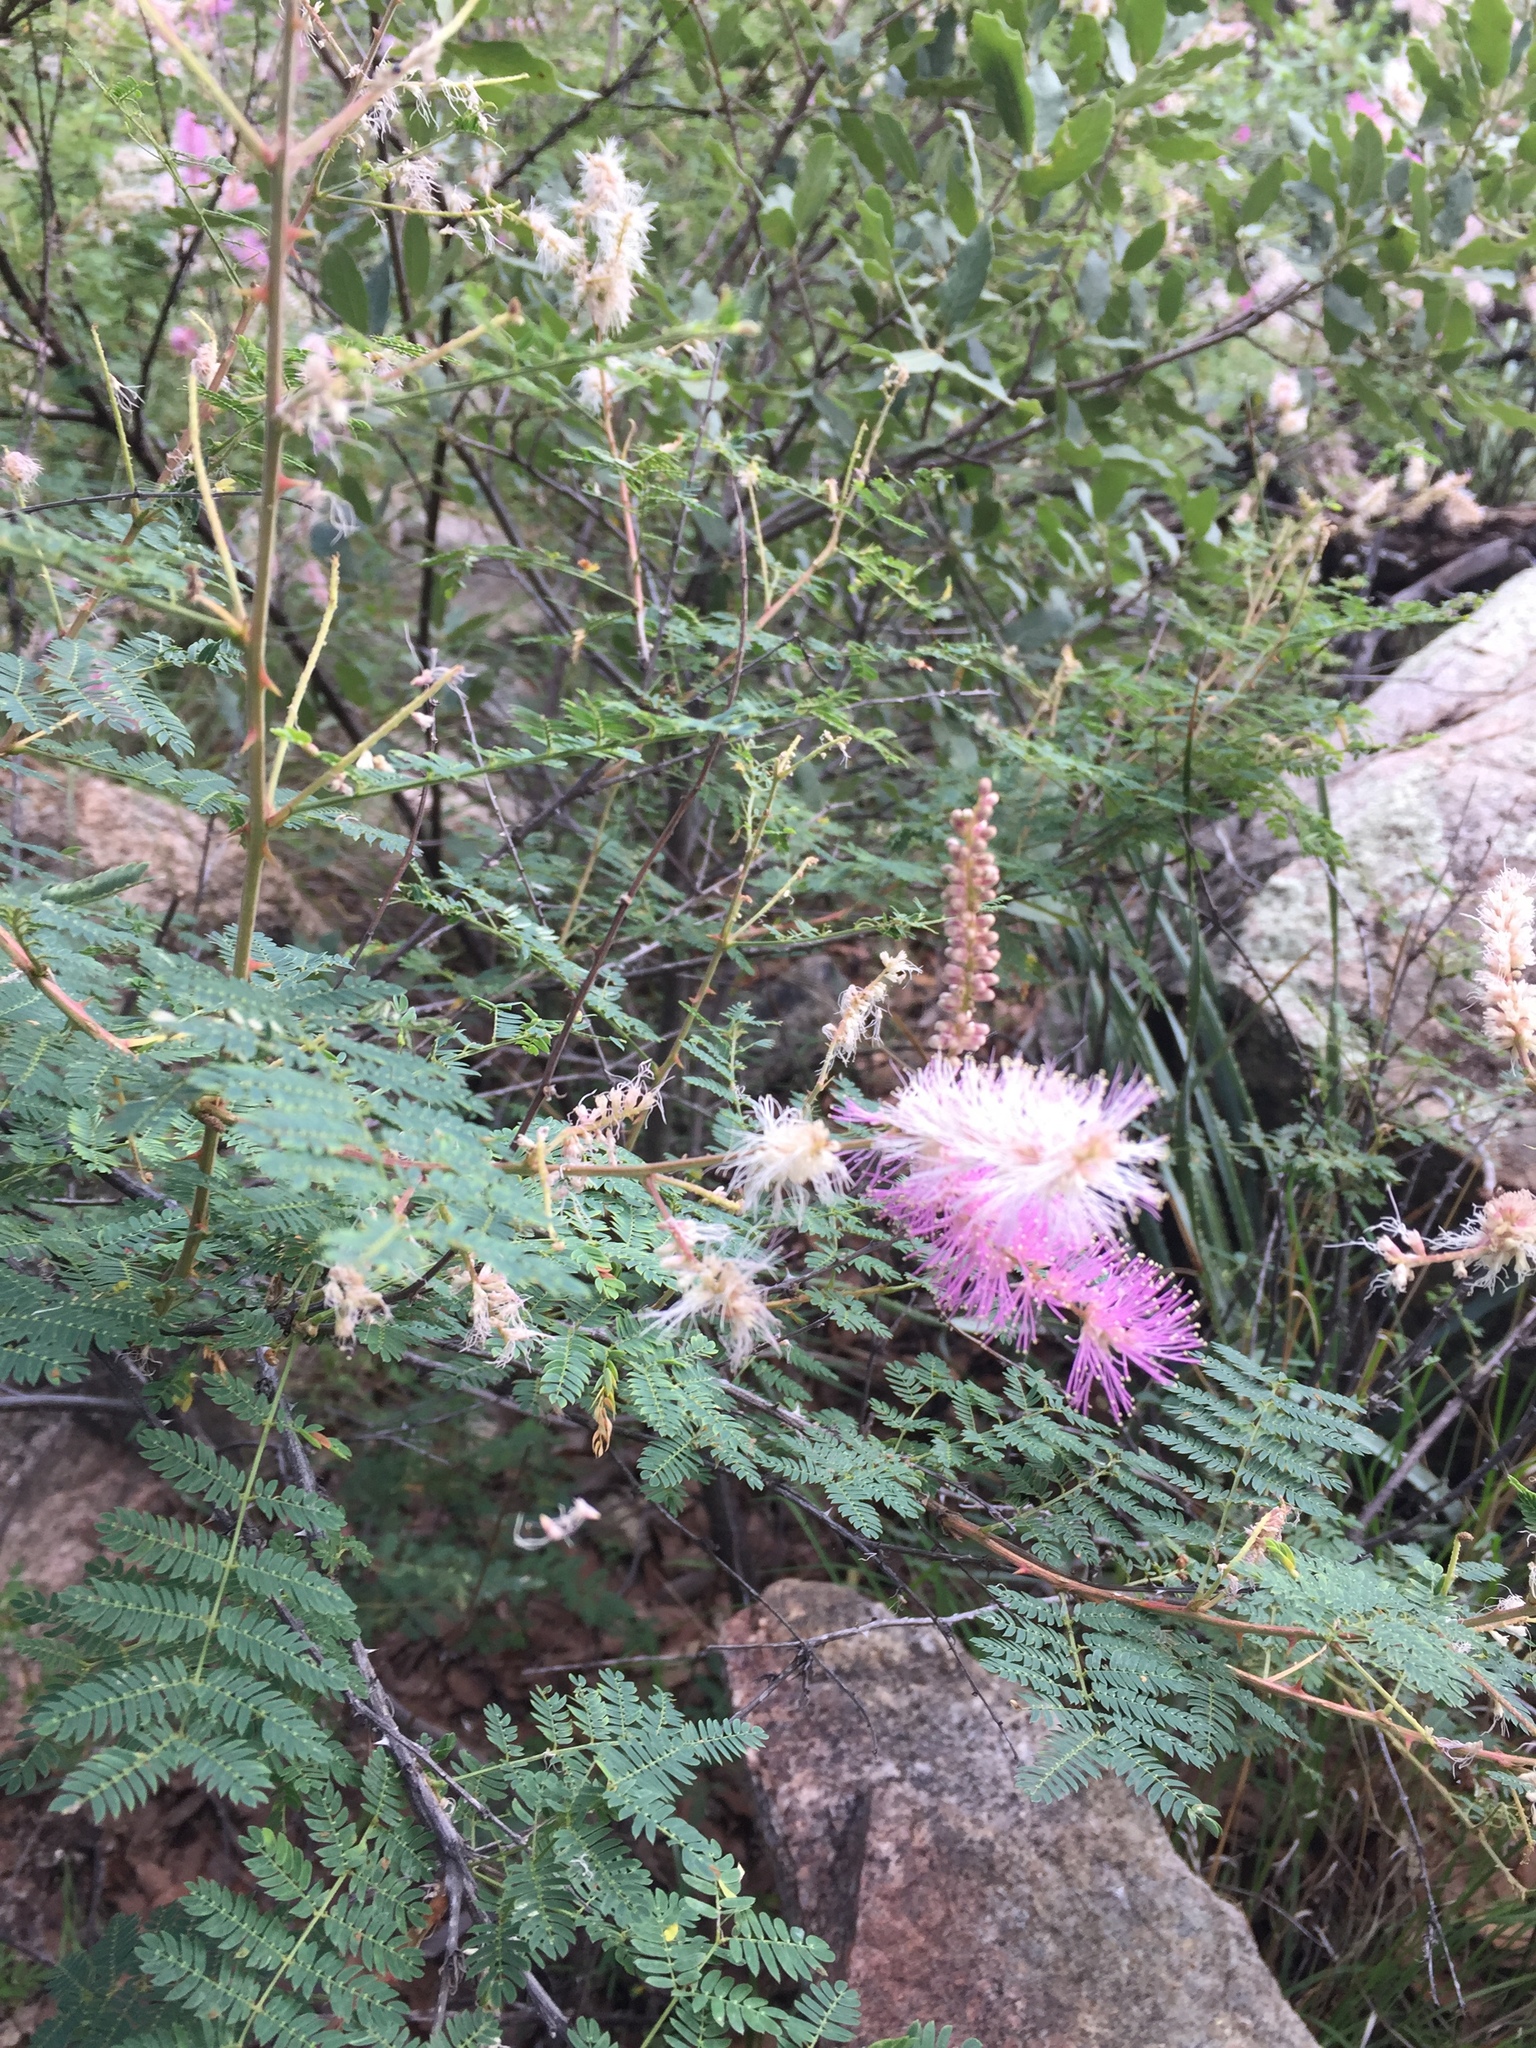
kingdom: Plantae
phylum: Tracheophyta
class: Magnoliopsida
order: Fabales
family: Fabaceae
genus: Mimosa
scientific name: Mimosa dysocarpa
